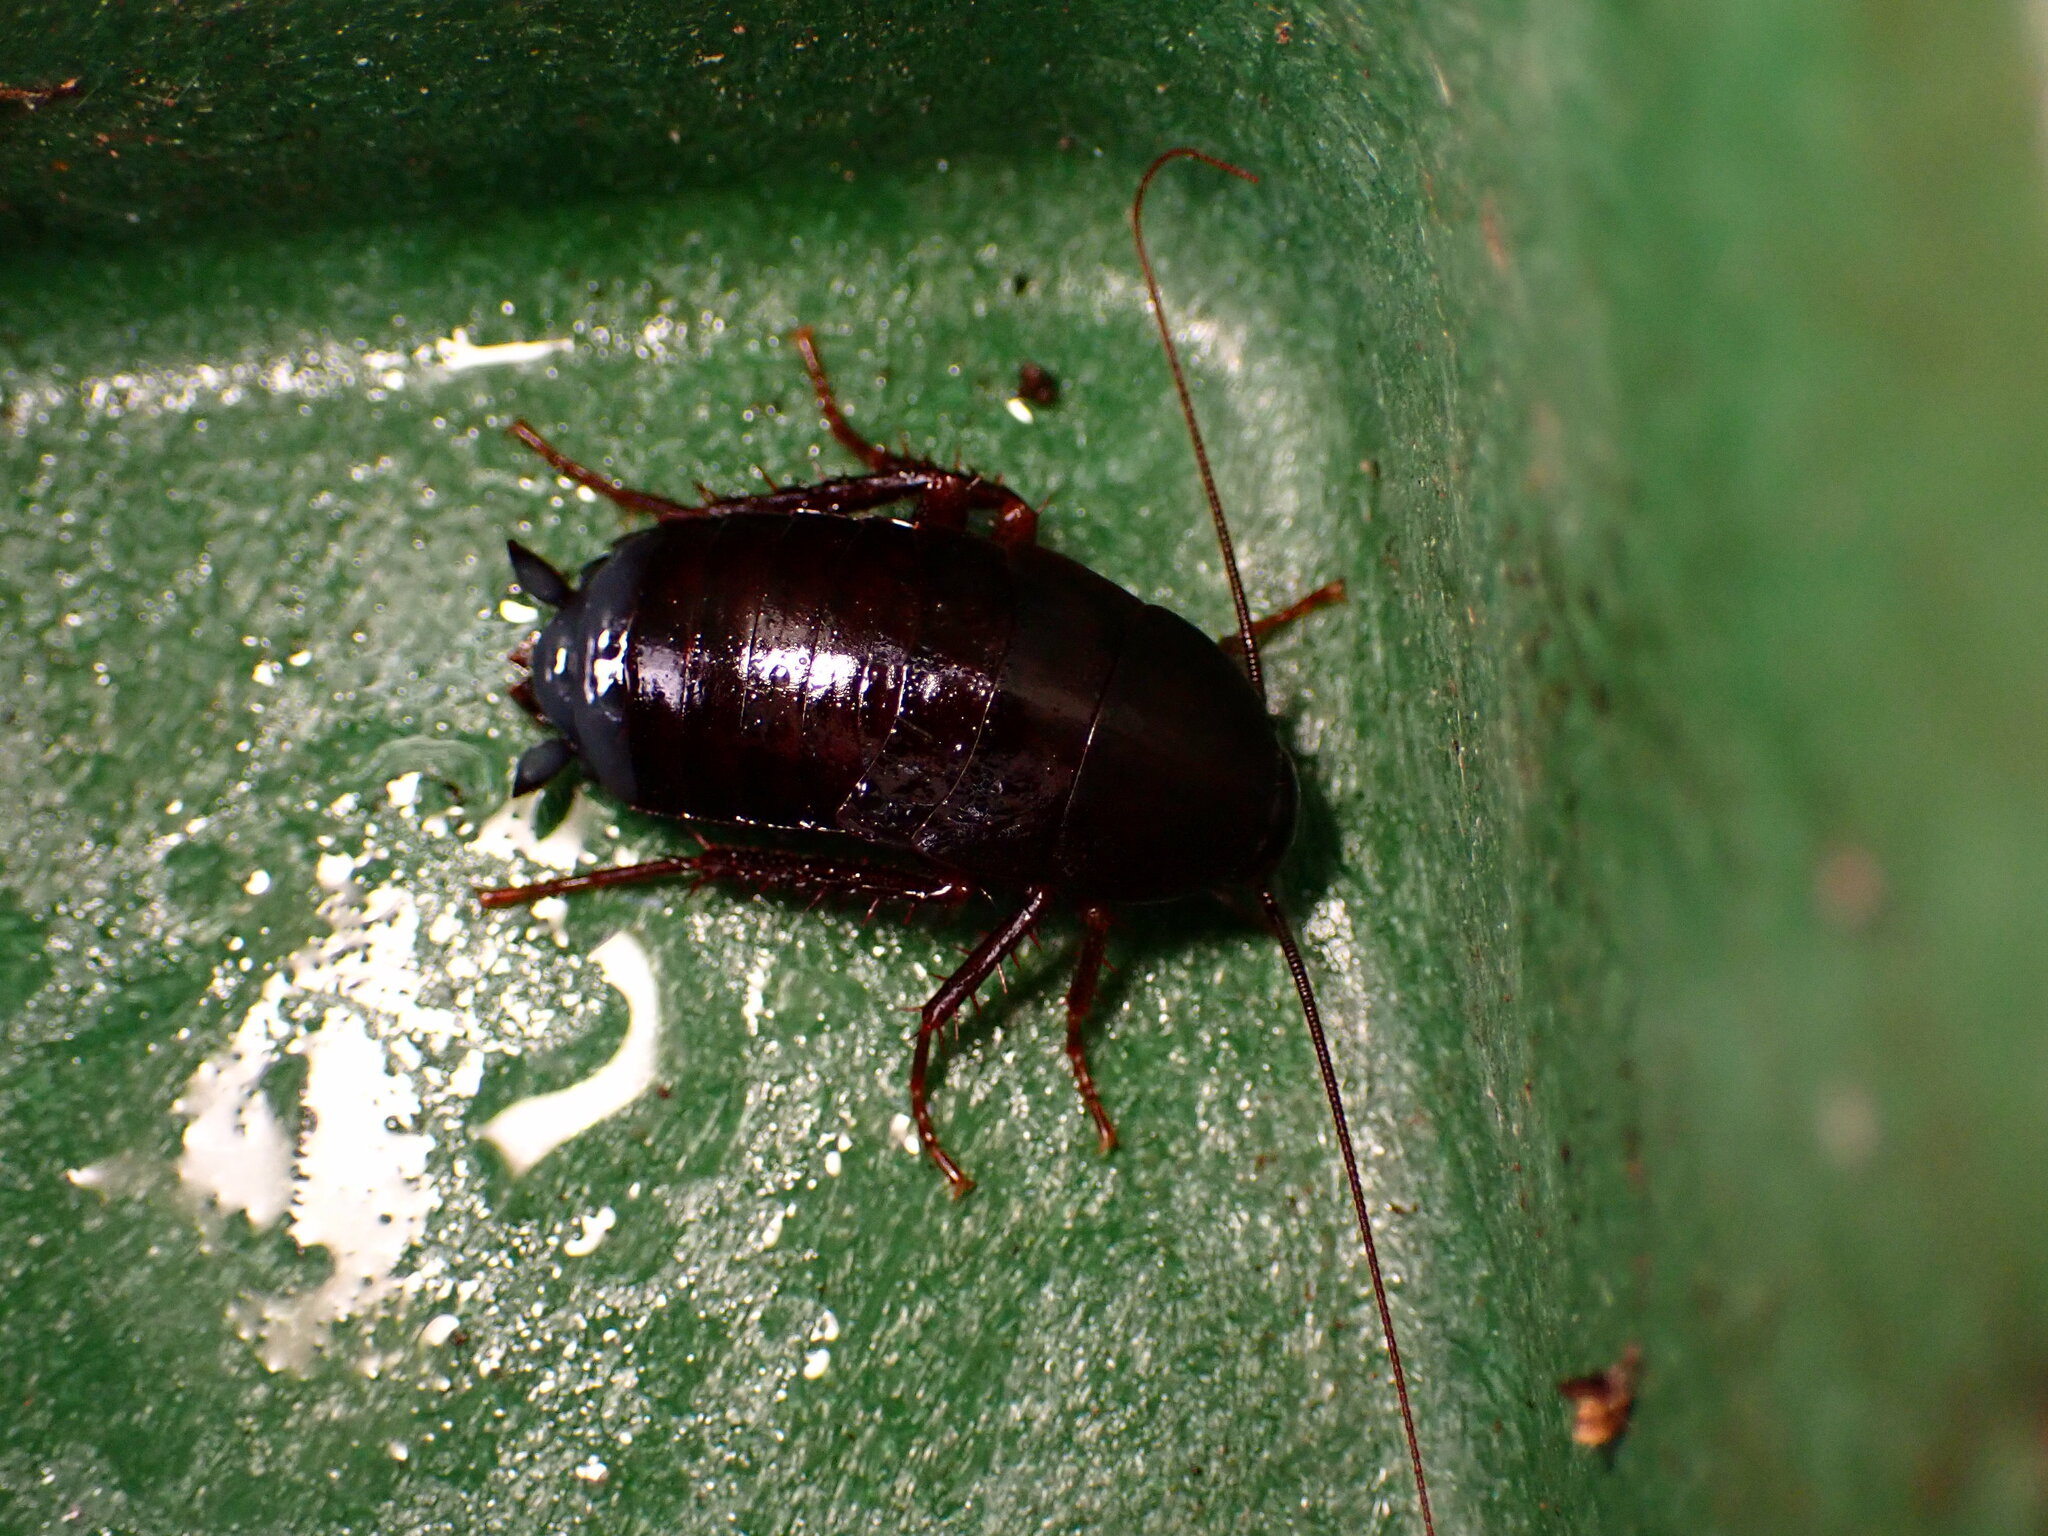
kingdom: Animalia
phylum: Arthropoda
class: Insecta
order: Blattodea
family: Blattidae
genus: Blatta
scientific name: Blatta orientalis
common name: Oriental cockroach
